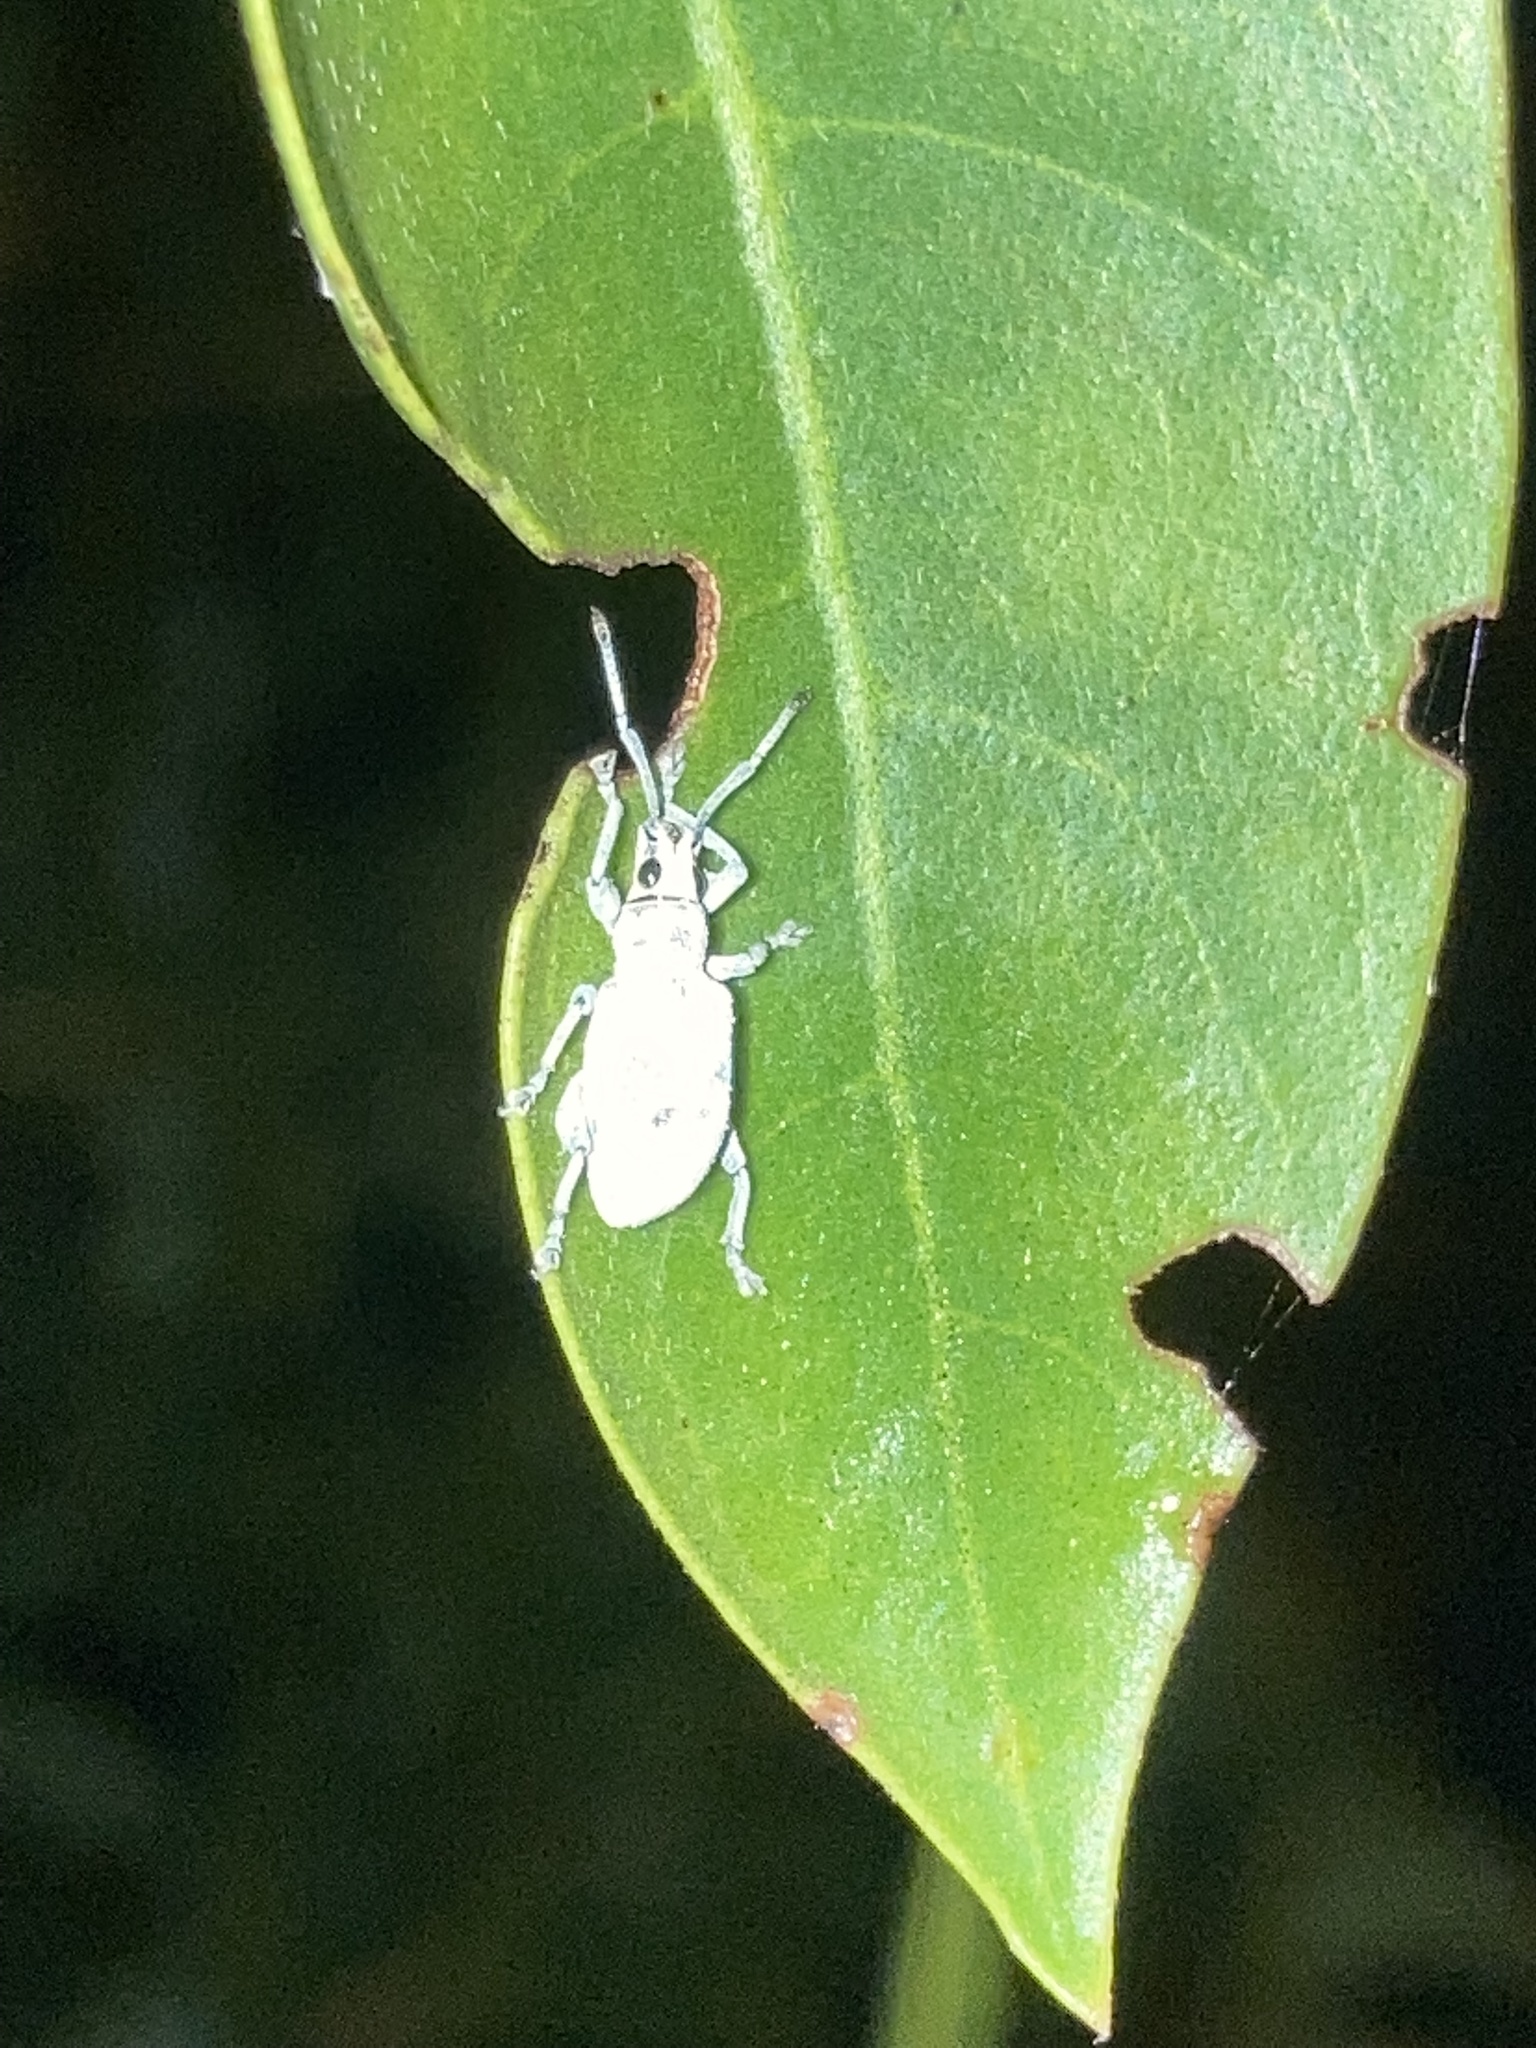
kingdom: Animalia
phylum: Arthropoda
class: Insecta
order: Coleoptera
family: Curculionidae
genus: Myllocerus
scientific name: Myllocerus undecimpustulatus
